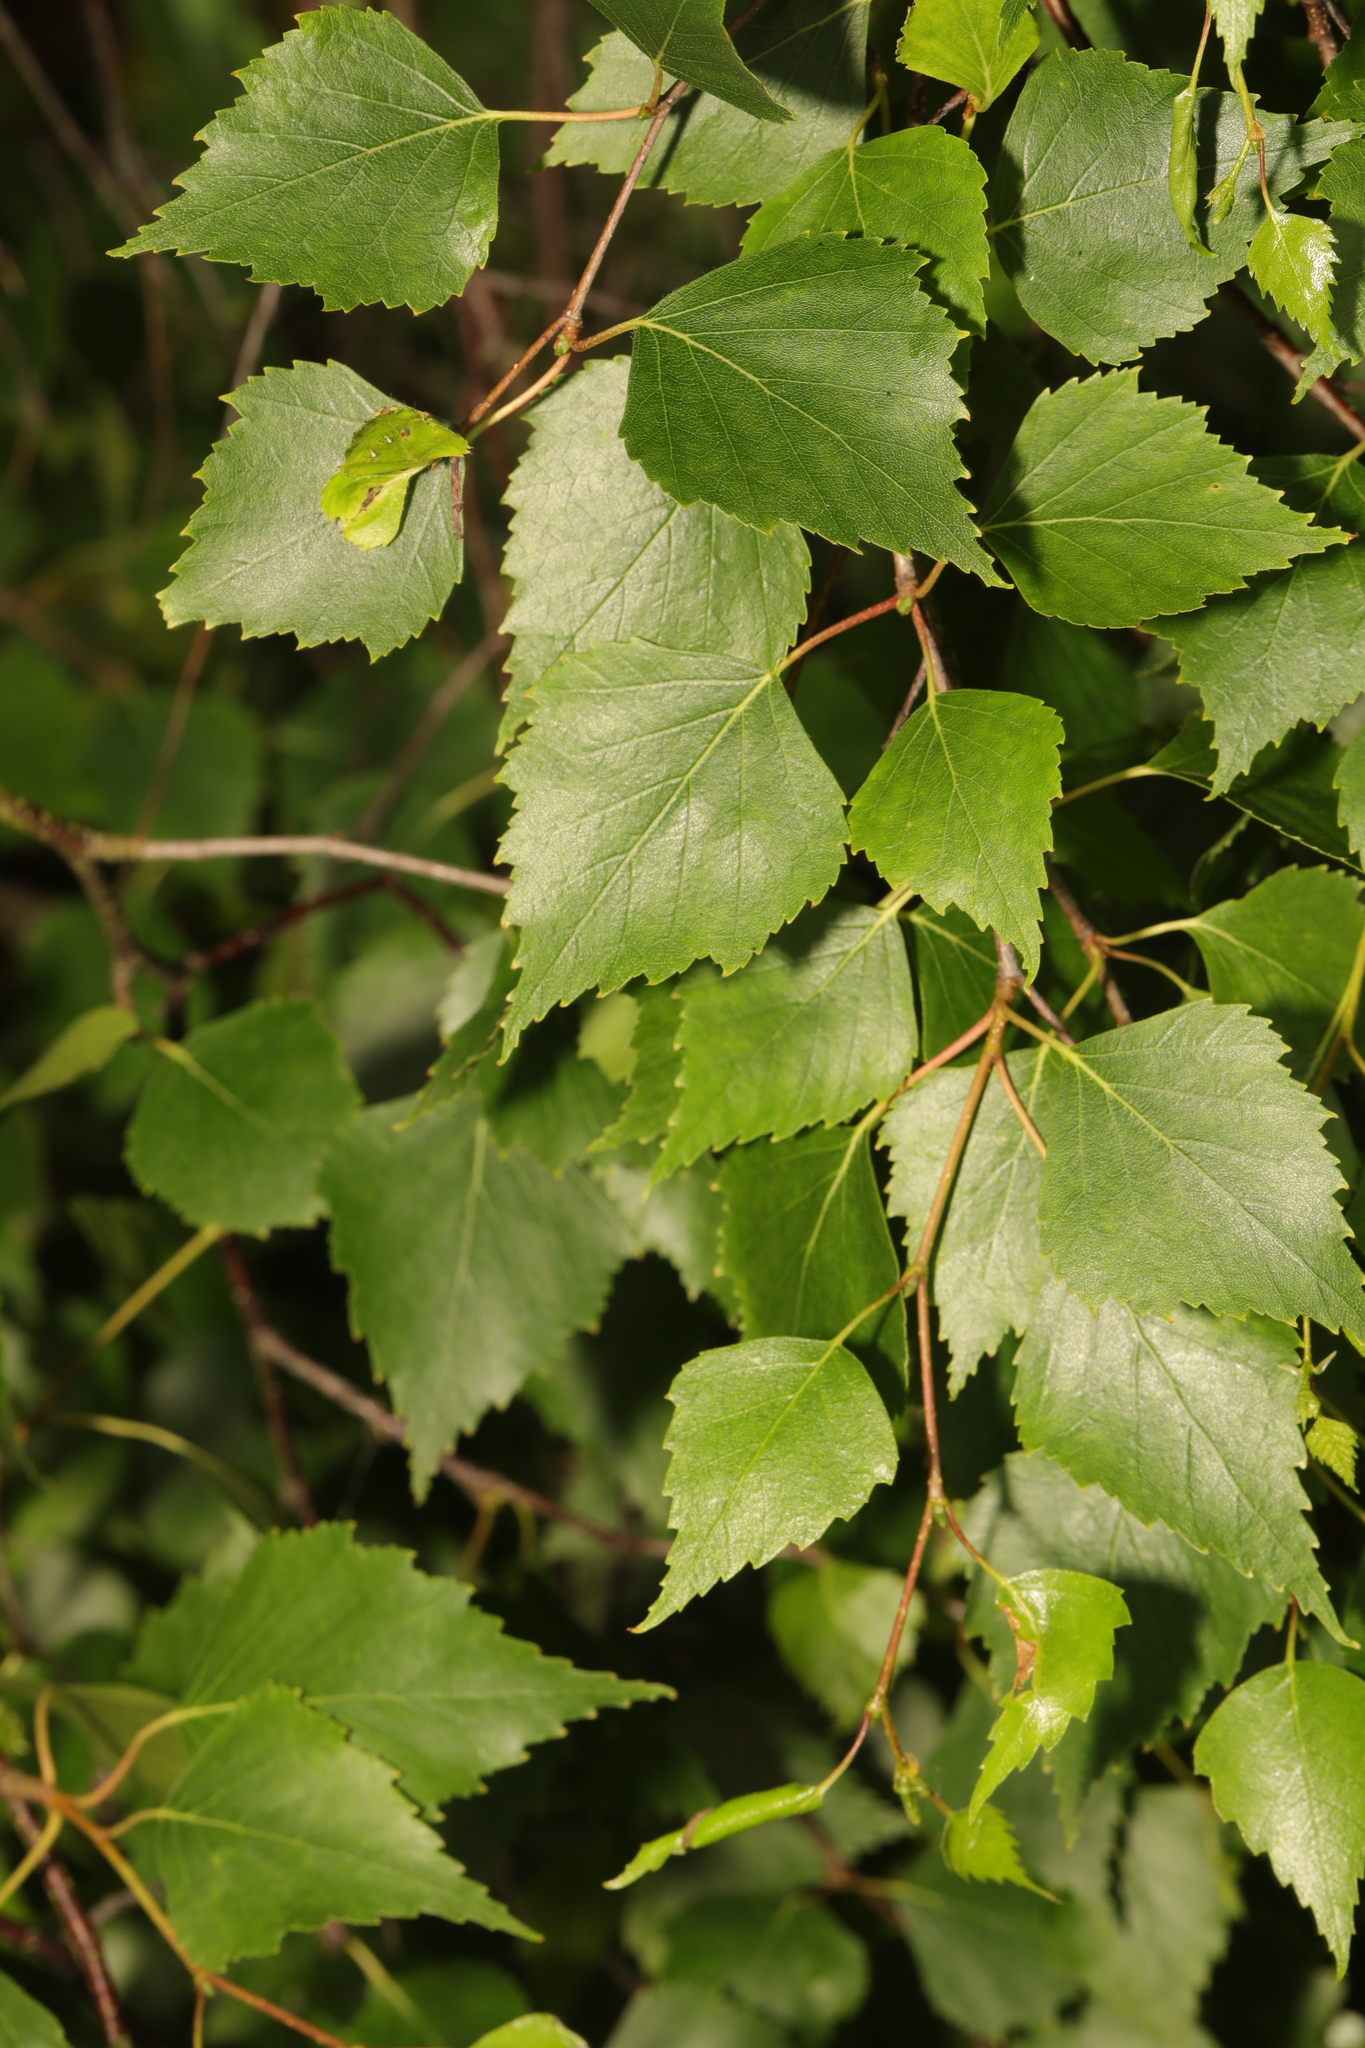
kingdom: Plantae
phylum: Tracheophyta
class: Magnoliopsida
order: Fagales
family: Betulaceae
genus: Betula
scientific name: Betula pendula
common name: Silver birch
